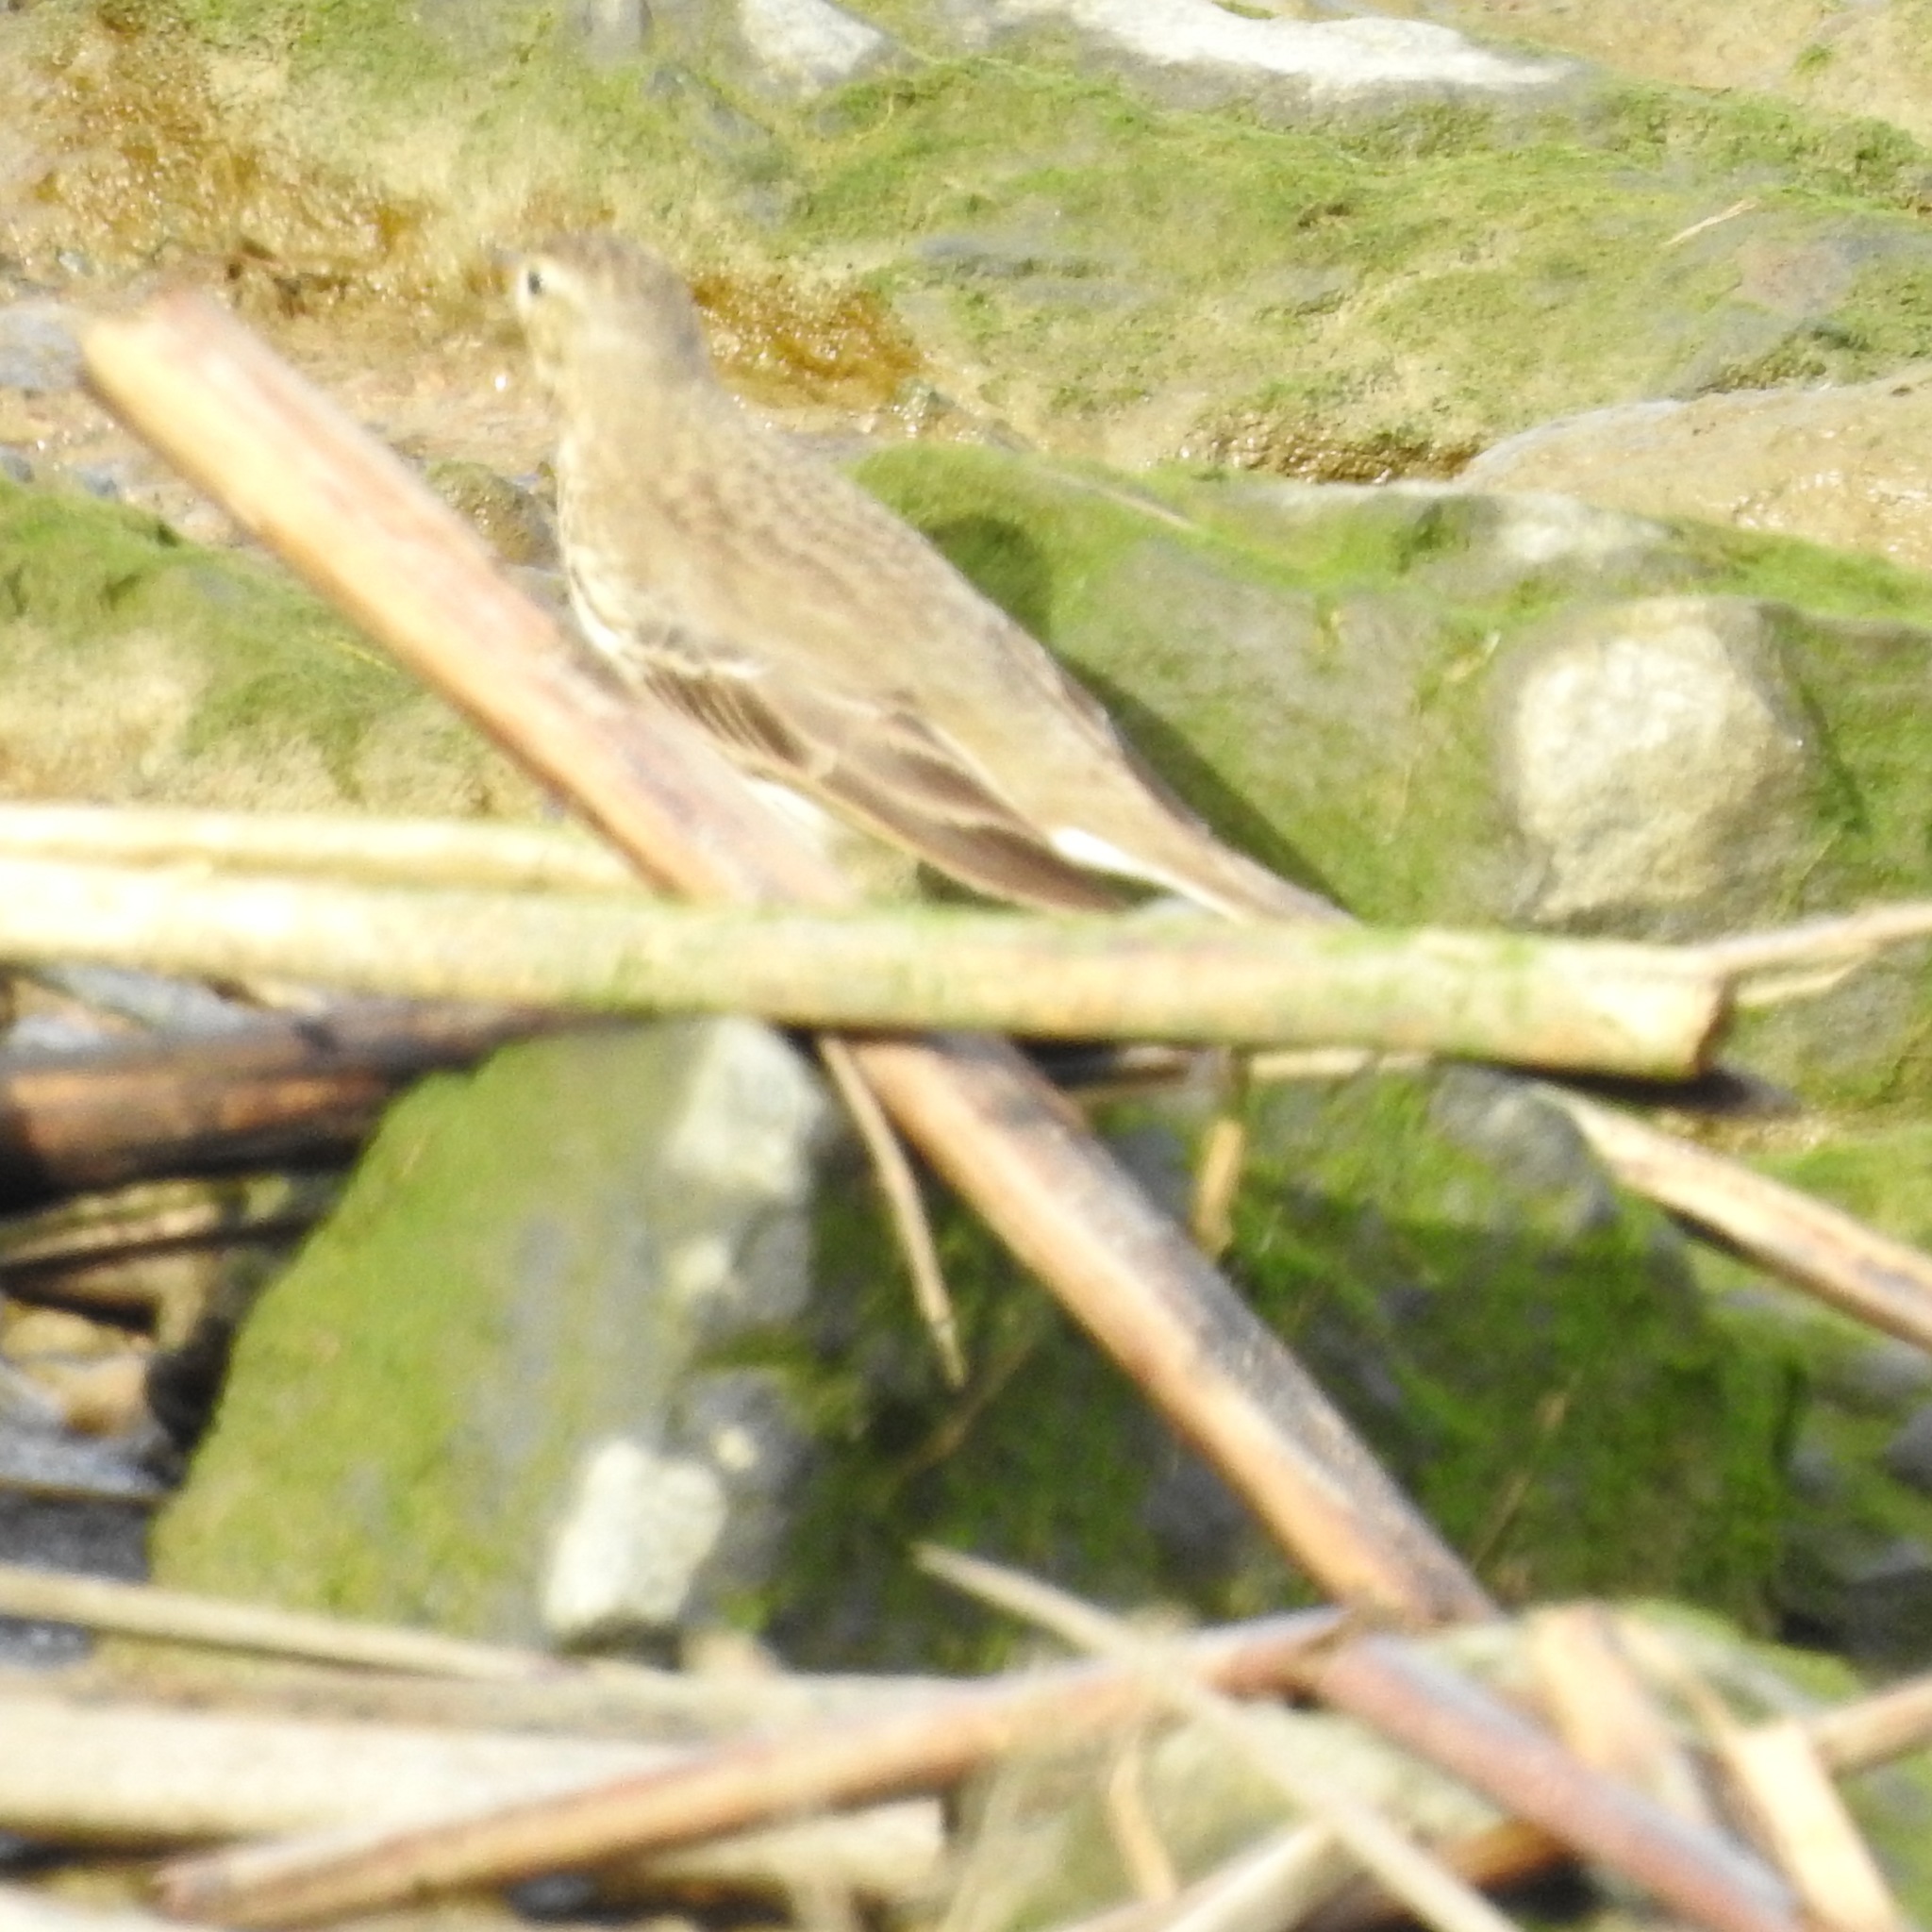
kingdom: Animalia
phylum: Chordata
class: Aves
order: Passeriformes
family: Motacillidae
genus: Anthus
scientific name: Anthus rubescens
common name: Buff-bellied pipit
